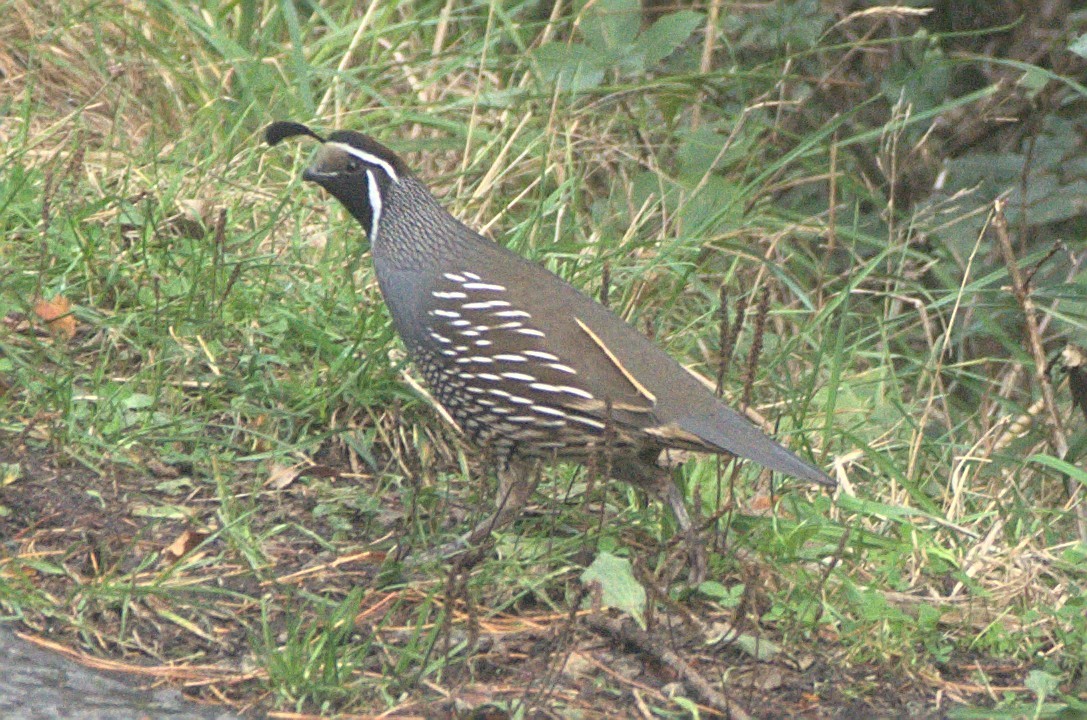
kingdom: Animalia
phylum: Chordata
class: Aves
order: Galliformes
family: Odontophoridae
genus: Callipepla
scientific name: Callipepla californica
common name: California quail
